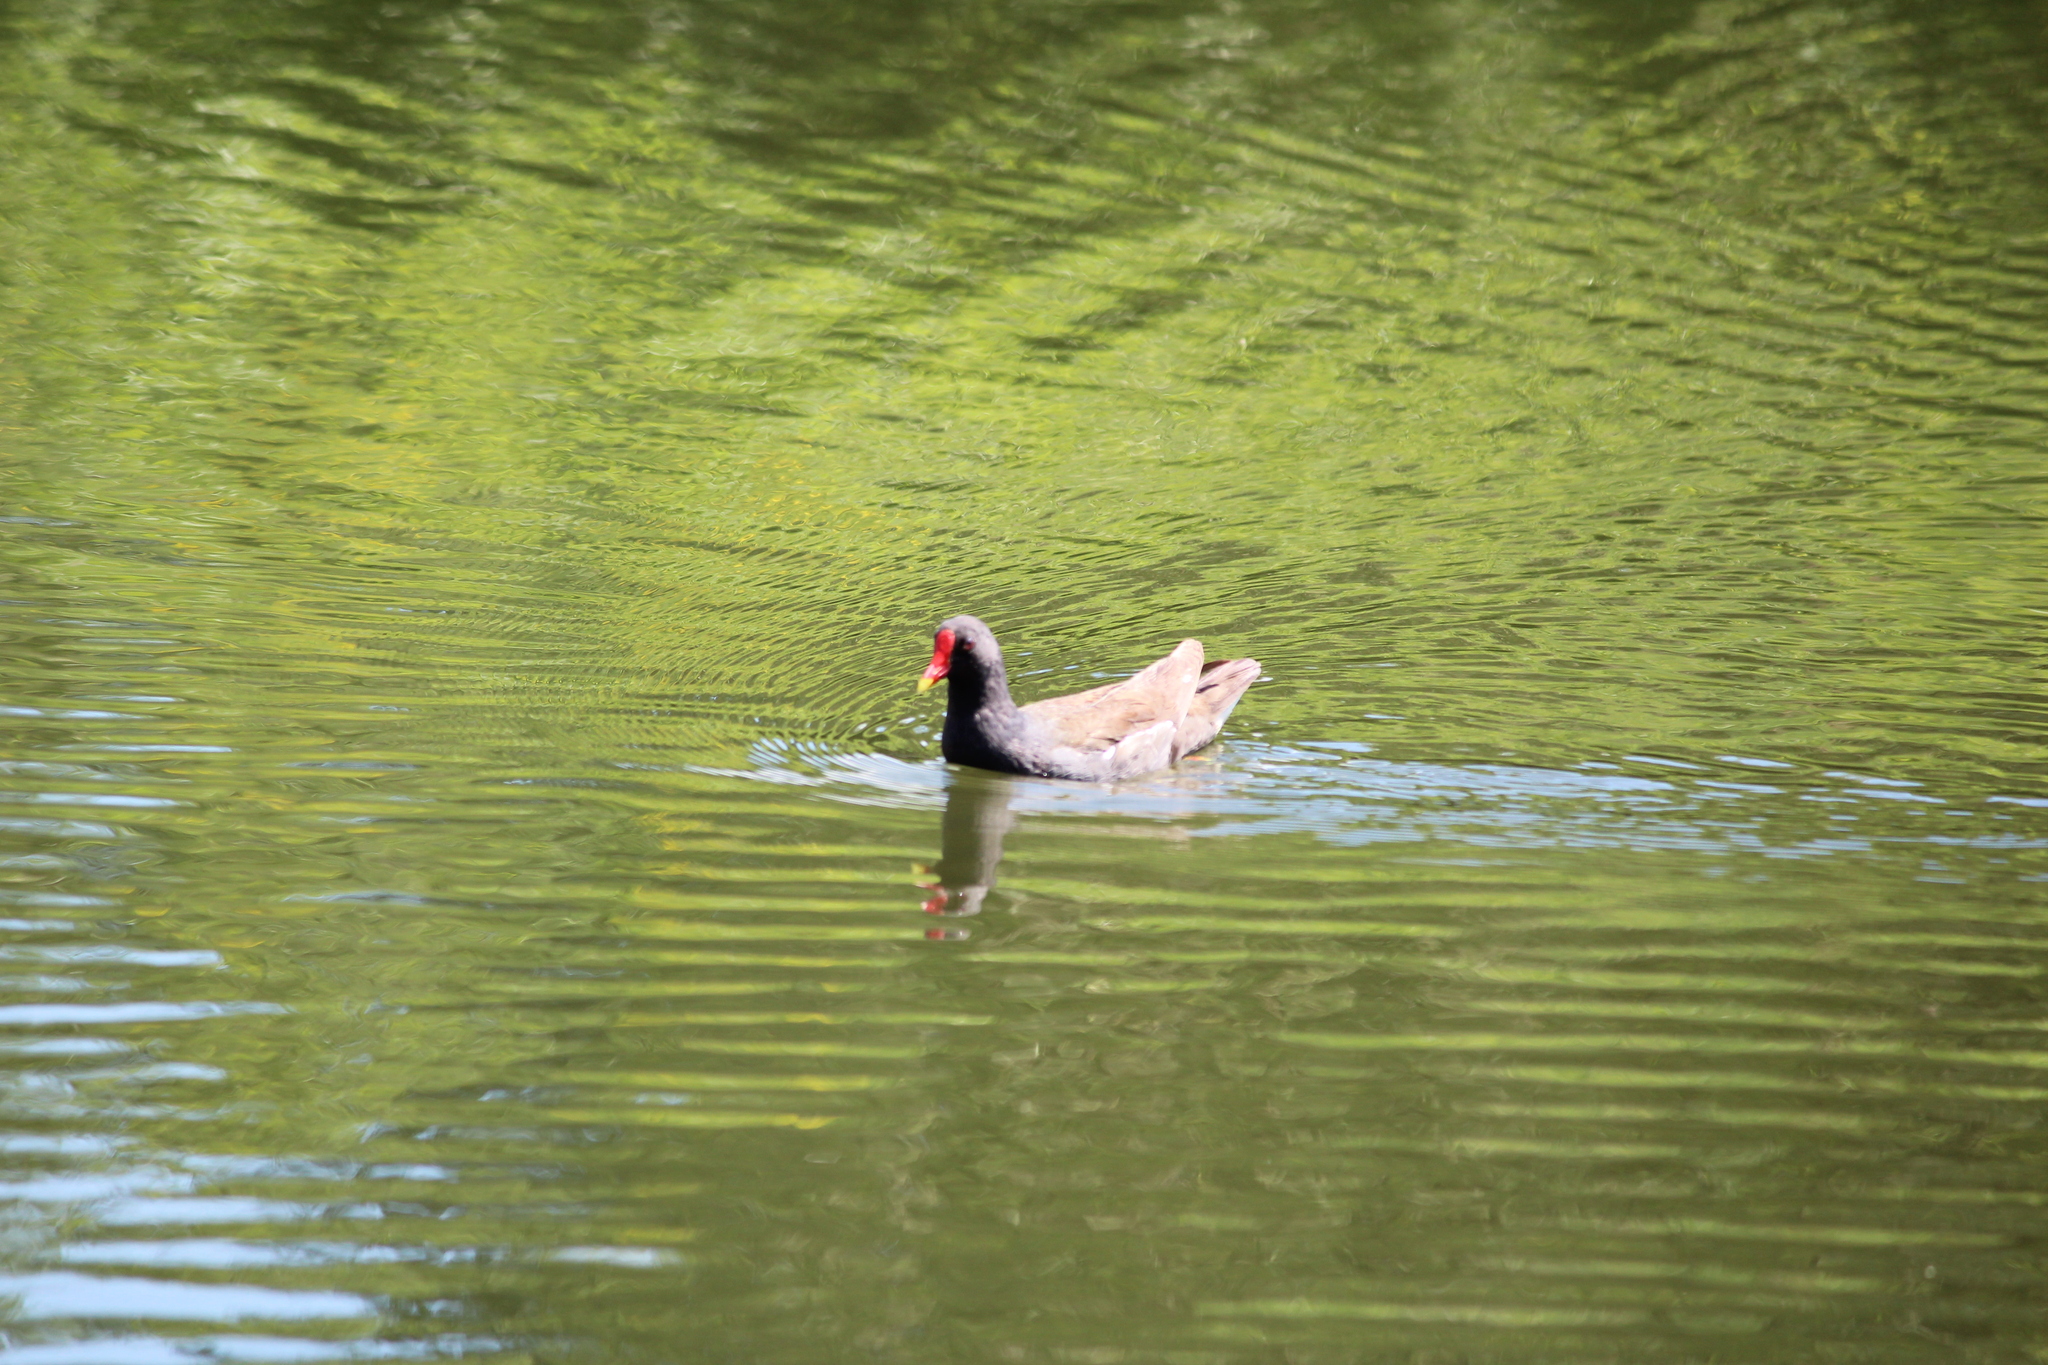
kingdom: Animalia
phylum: Chordata
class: Aves
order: Gruiformes
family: Rallidae
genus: Gallinula
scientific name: Gallinula chloropus
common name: Common moorhen
